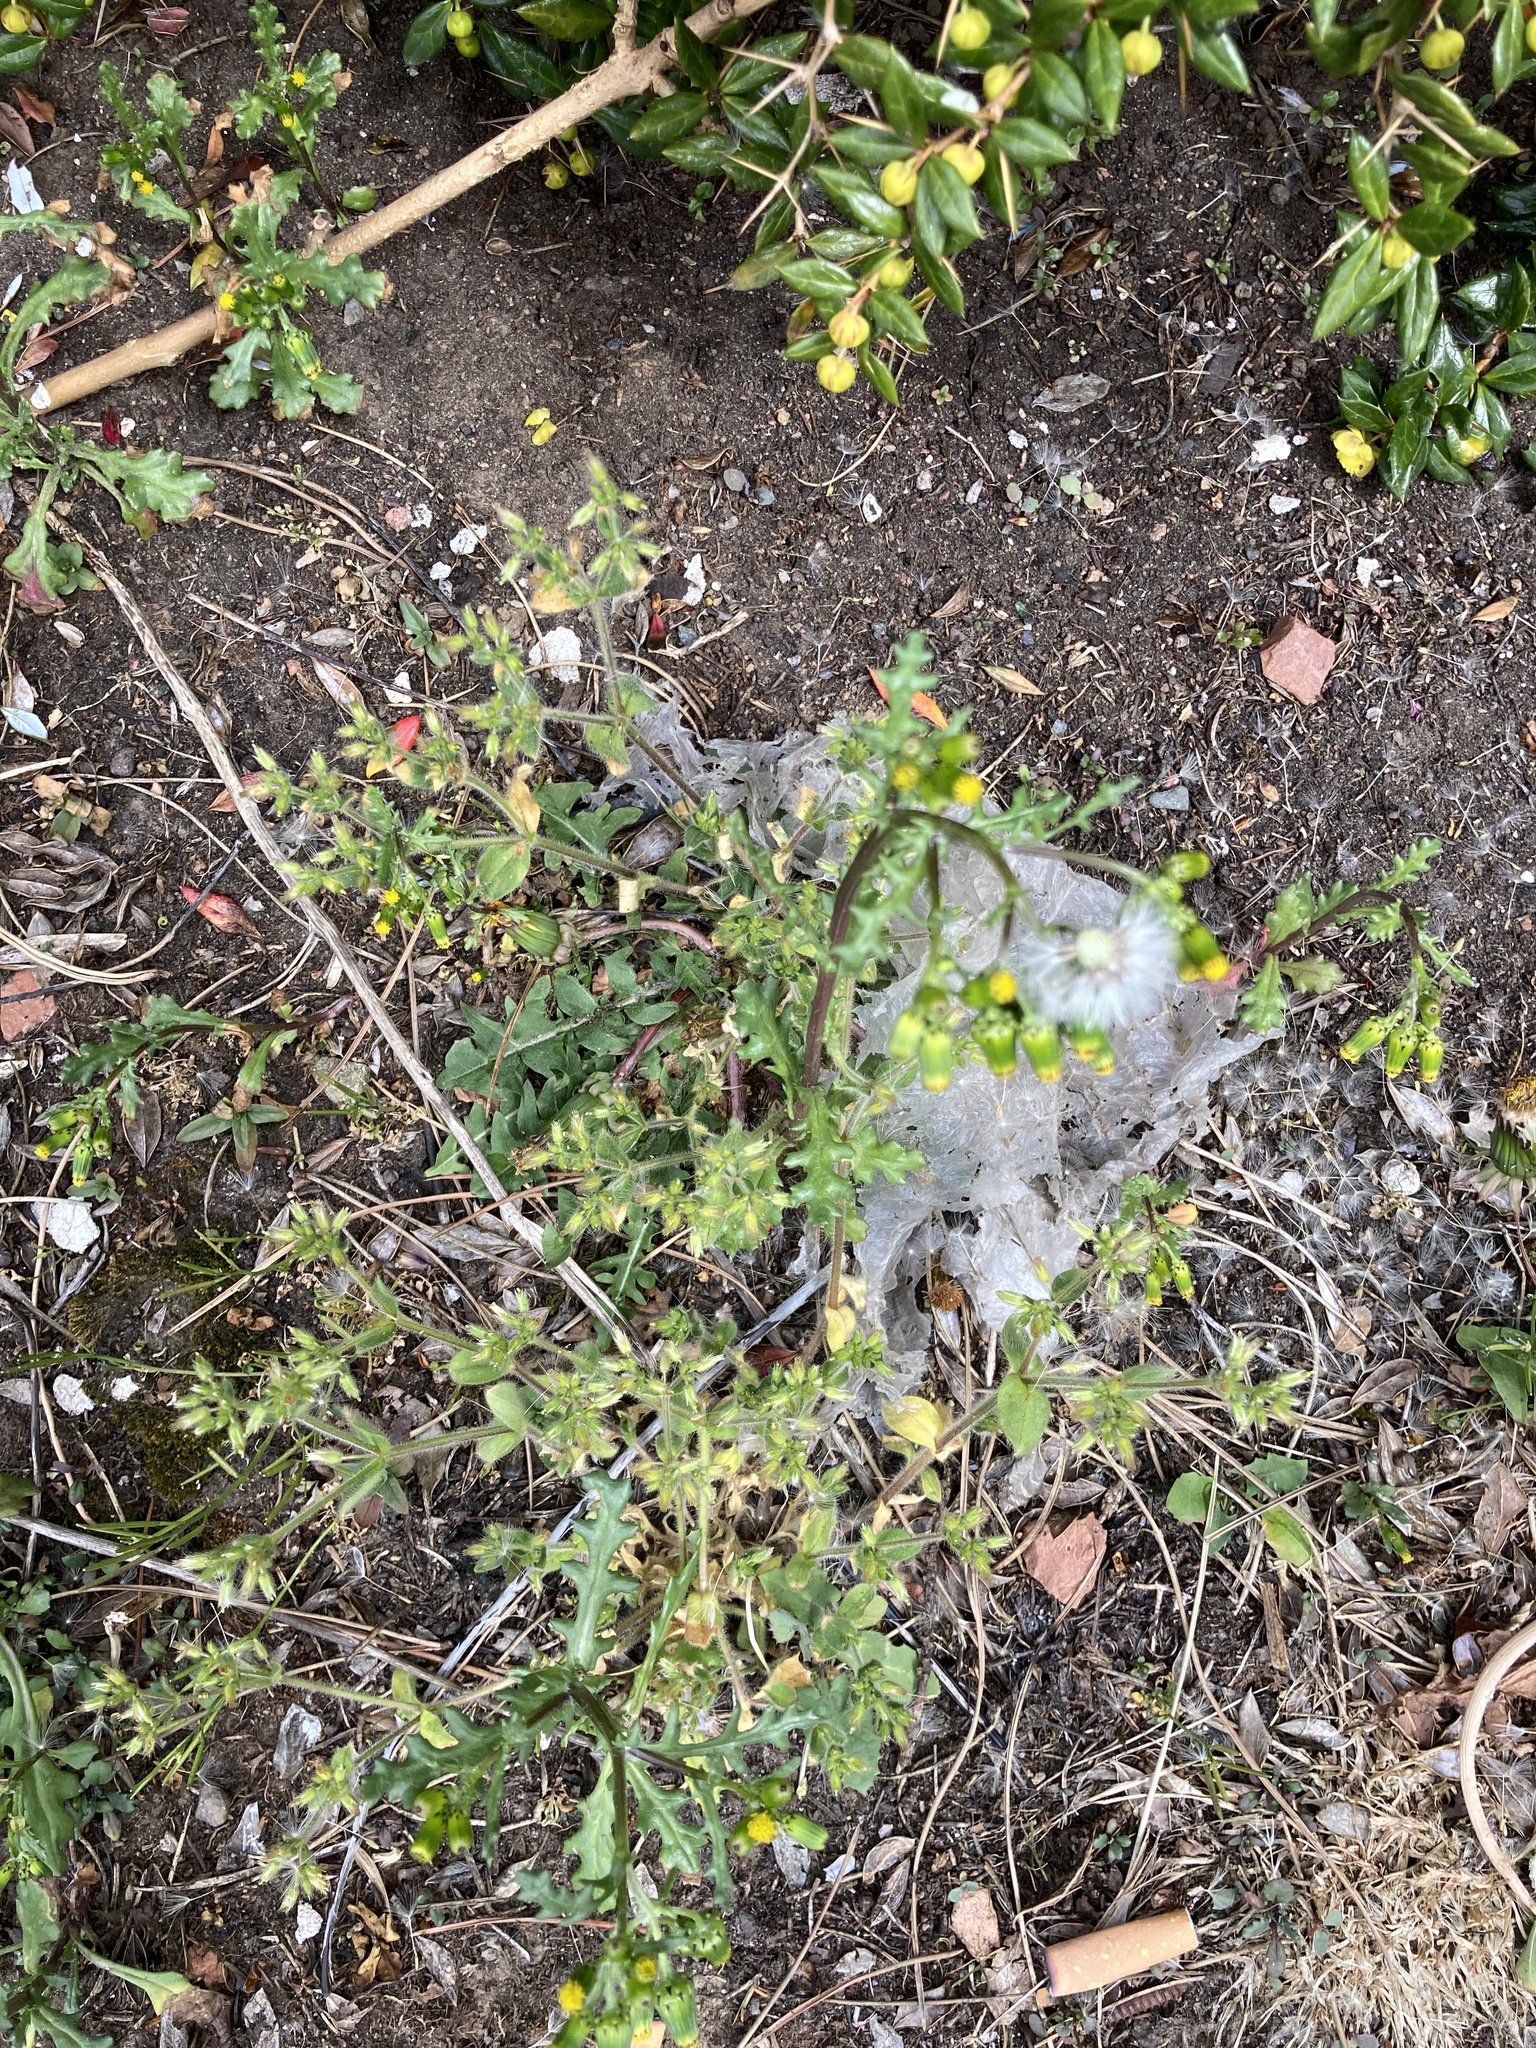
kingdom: Plantae
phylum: Tracheophyta
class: Magnoliopsida
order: Asterales
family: Asteraceae
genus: Senecio
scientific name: Senecio vulgaris
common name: Old-man-in-the-spring
